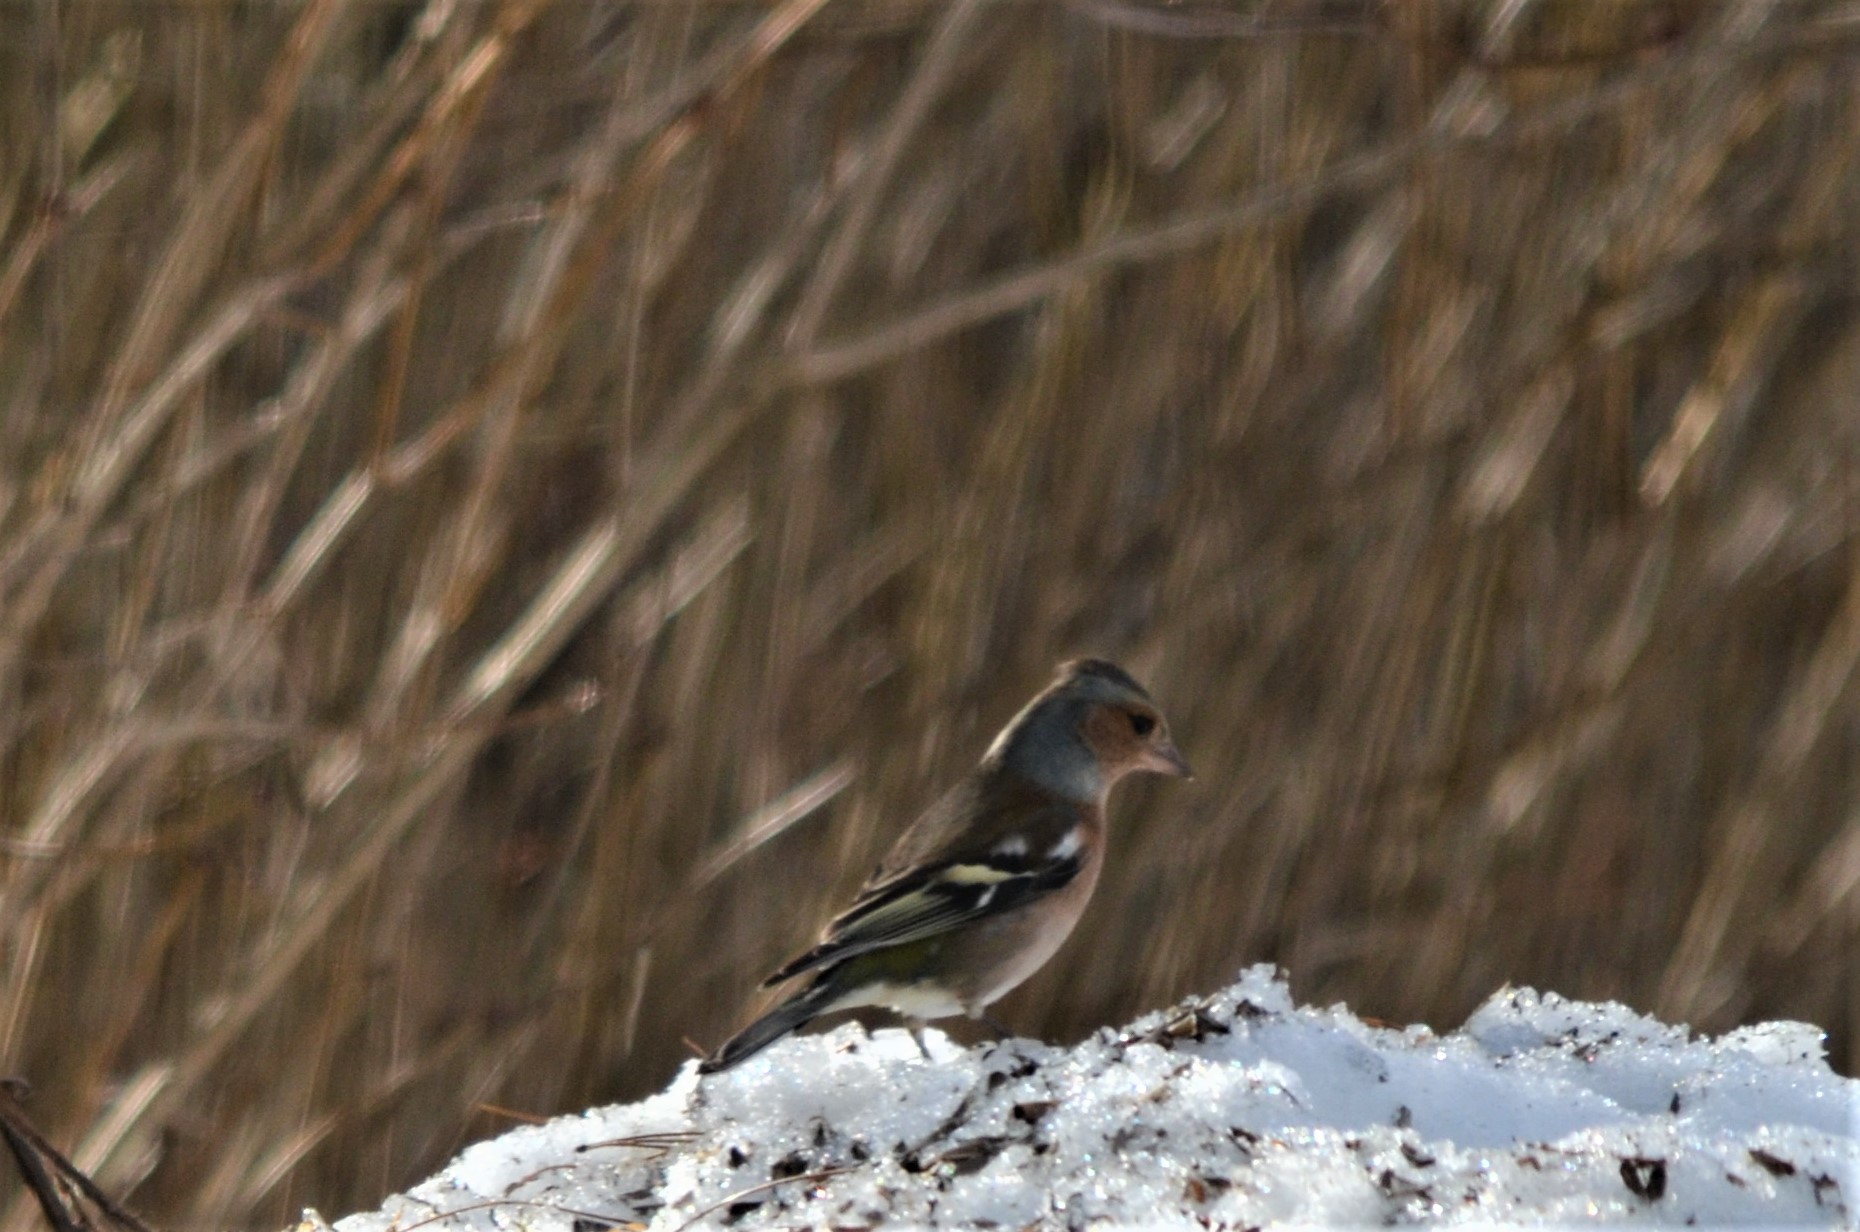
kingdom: Animalia
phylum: Chordata
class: Aves
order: Passeriformes
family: Fringillidae
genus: Fringilla
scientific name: Fringilla coelebs
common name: Common chaffinch
